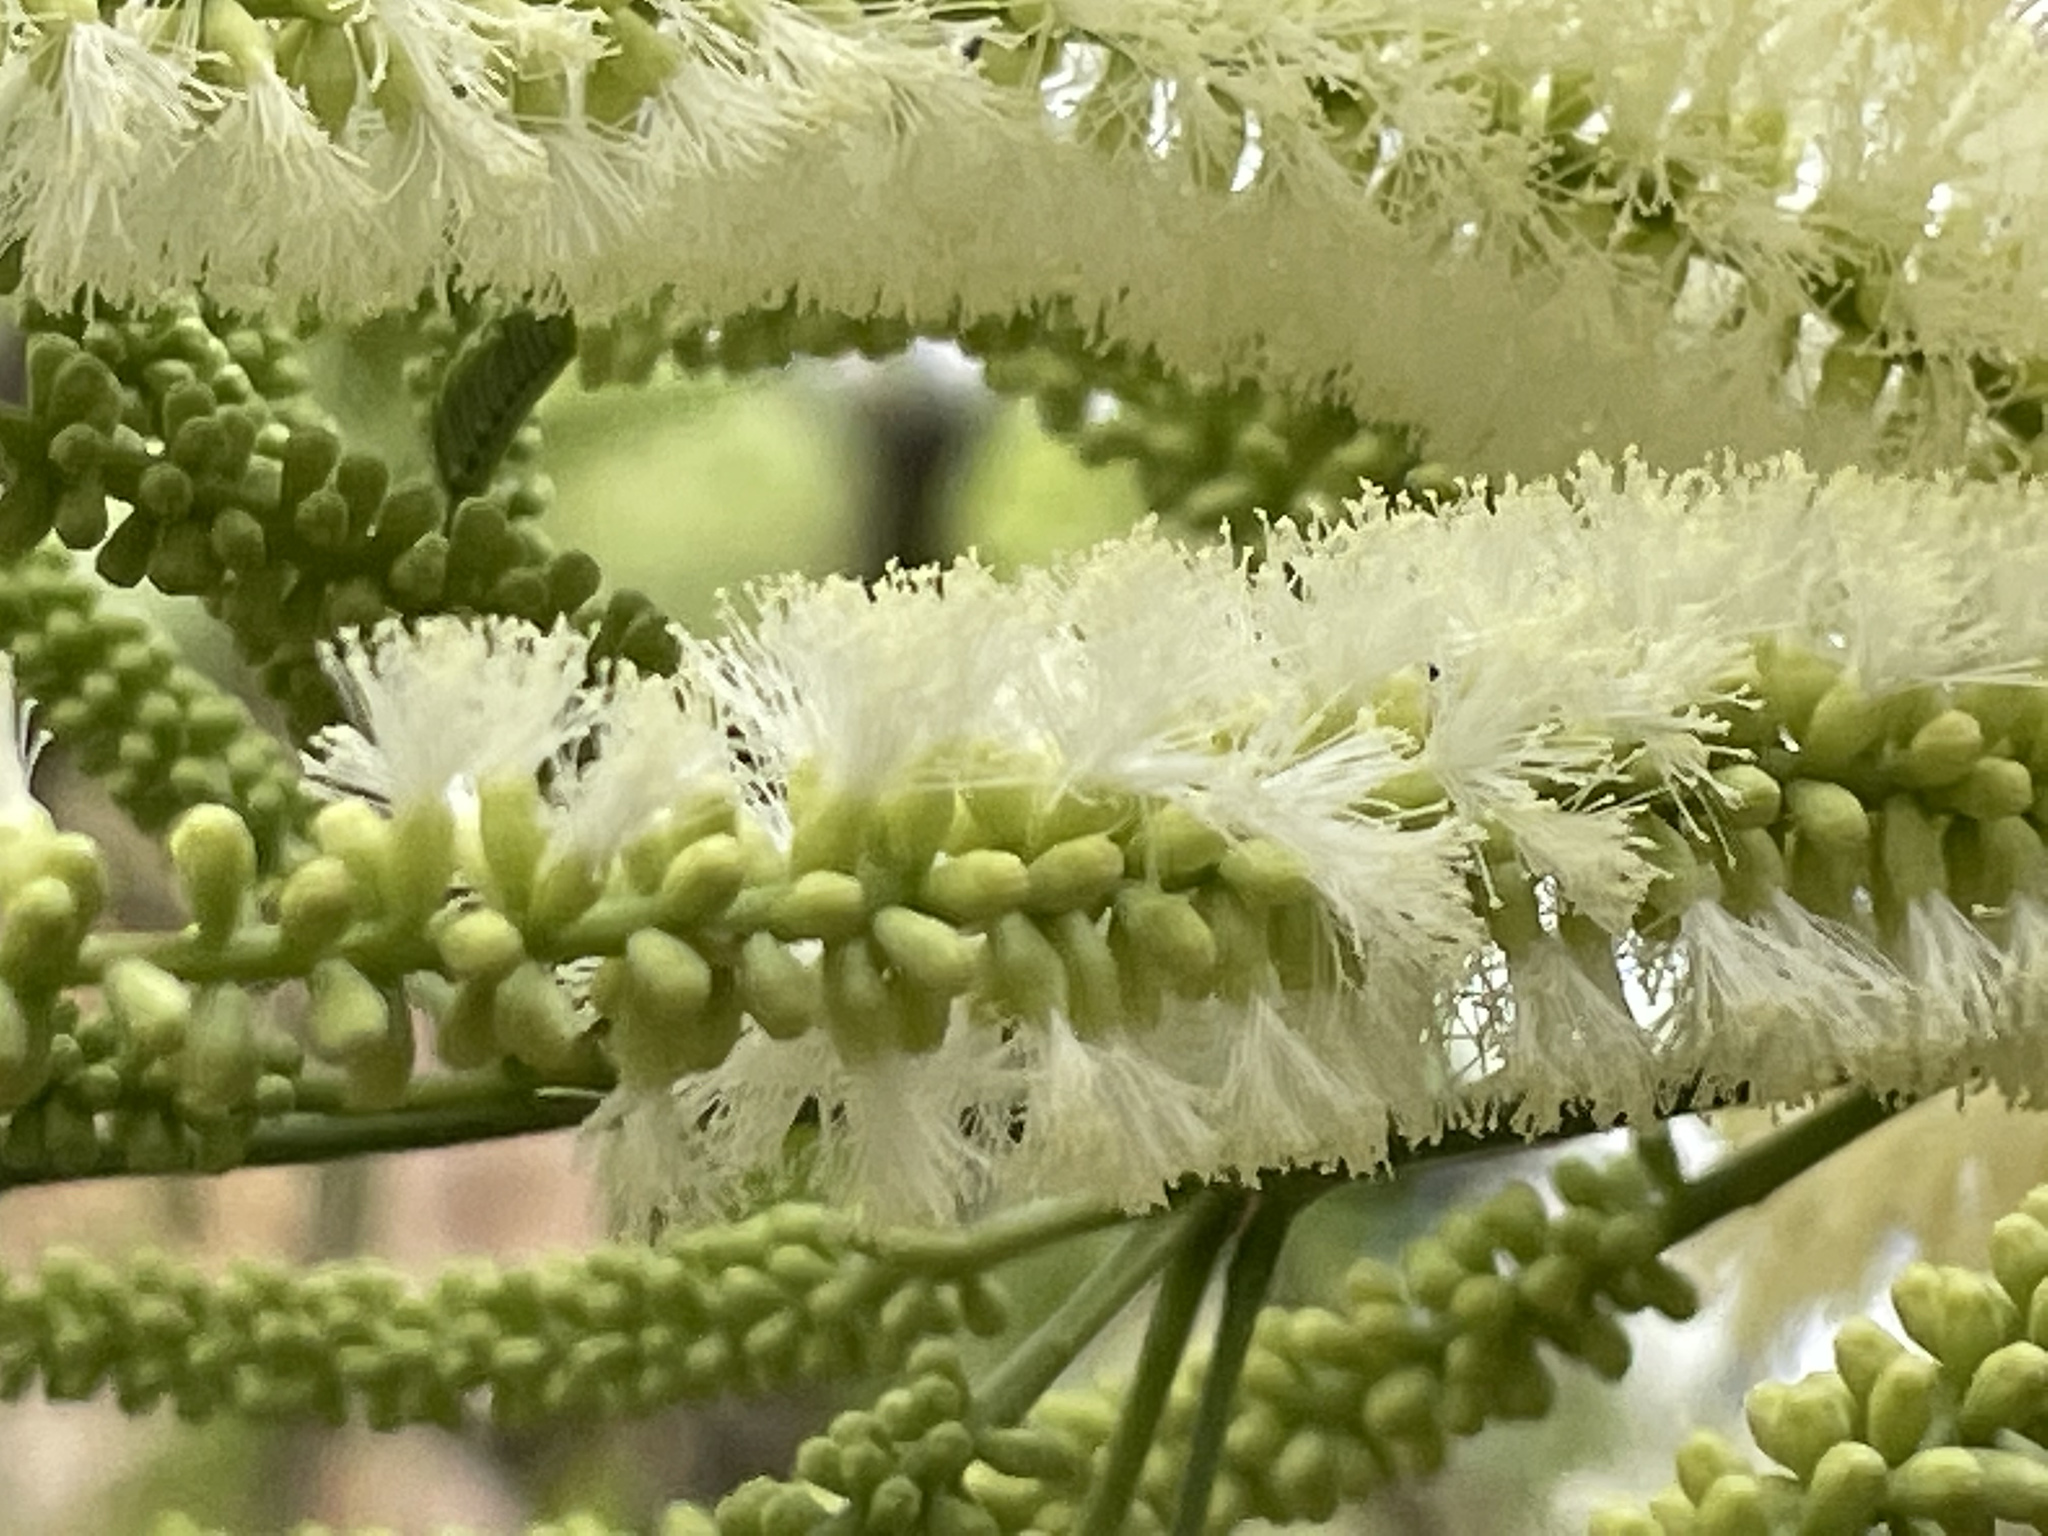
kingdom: Plantae
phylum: Tracheophyta
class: Magnoliopsida
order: Fabales
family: Fabaceae
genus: Mariosousa
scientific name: Mariosousa coulteri
